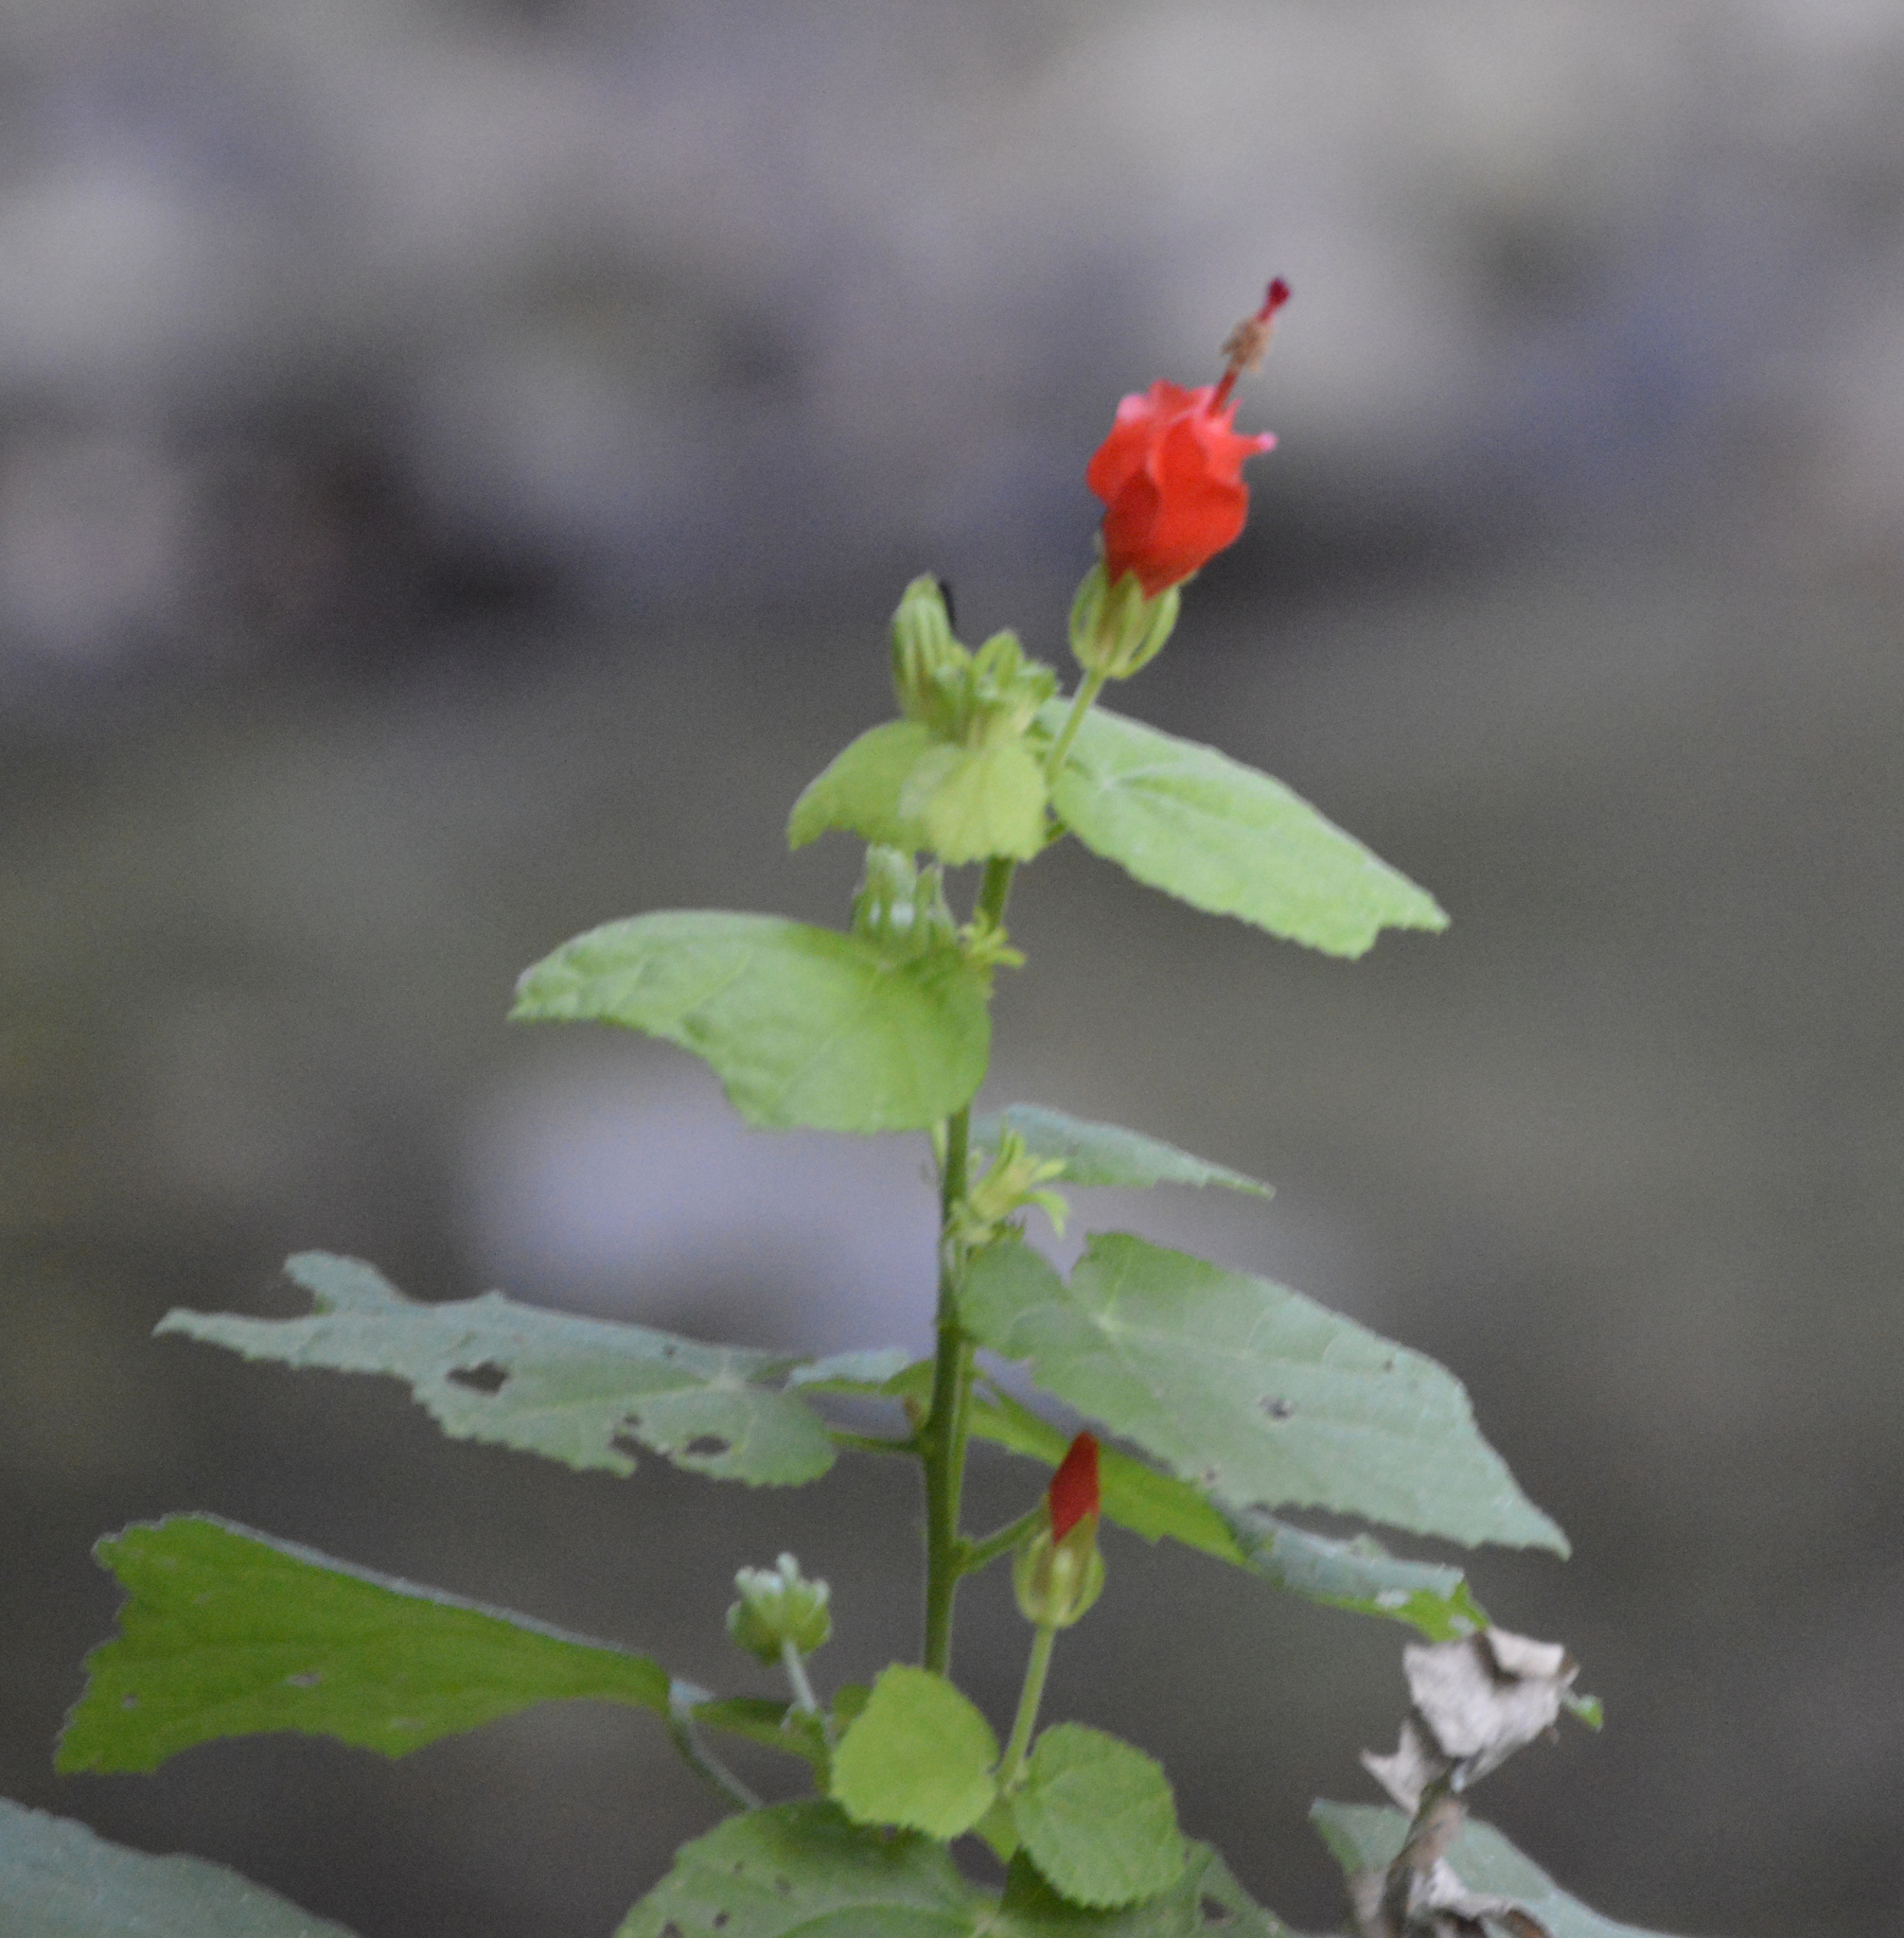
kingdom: Plantae
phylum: Tracheophyta
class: Magnoliopsida
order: Malvales
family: Malvaceae
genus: Malvaviscus
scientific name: Malvaviscus arboreus
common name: Wax mallow
